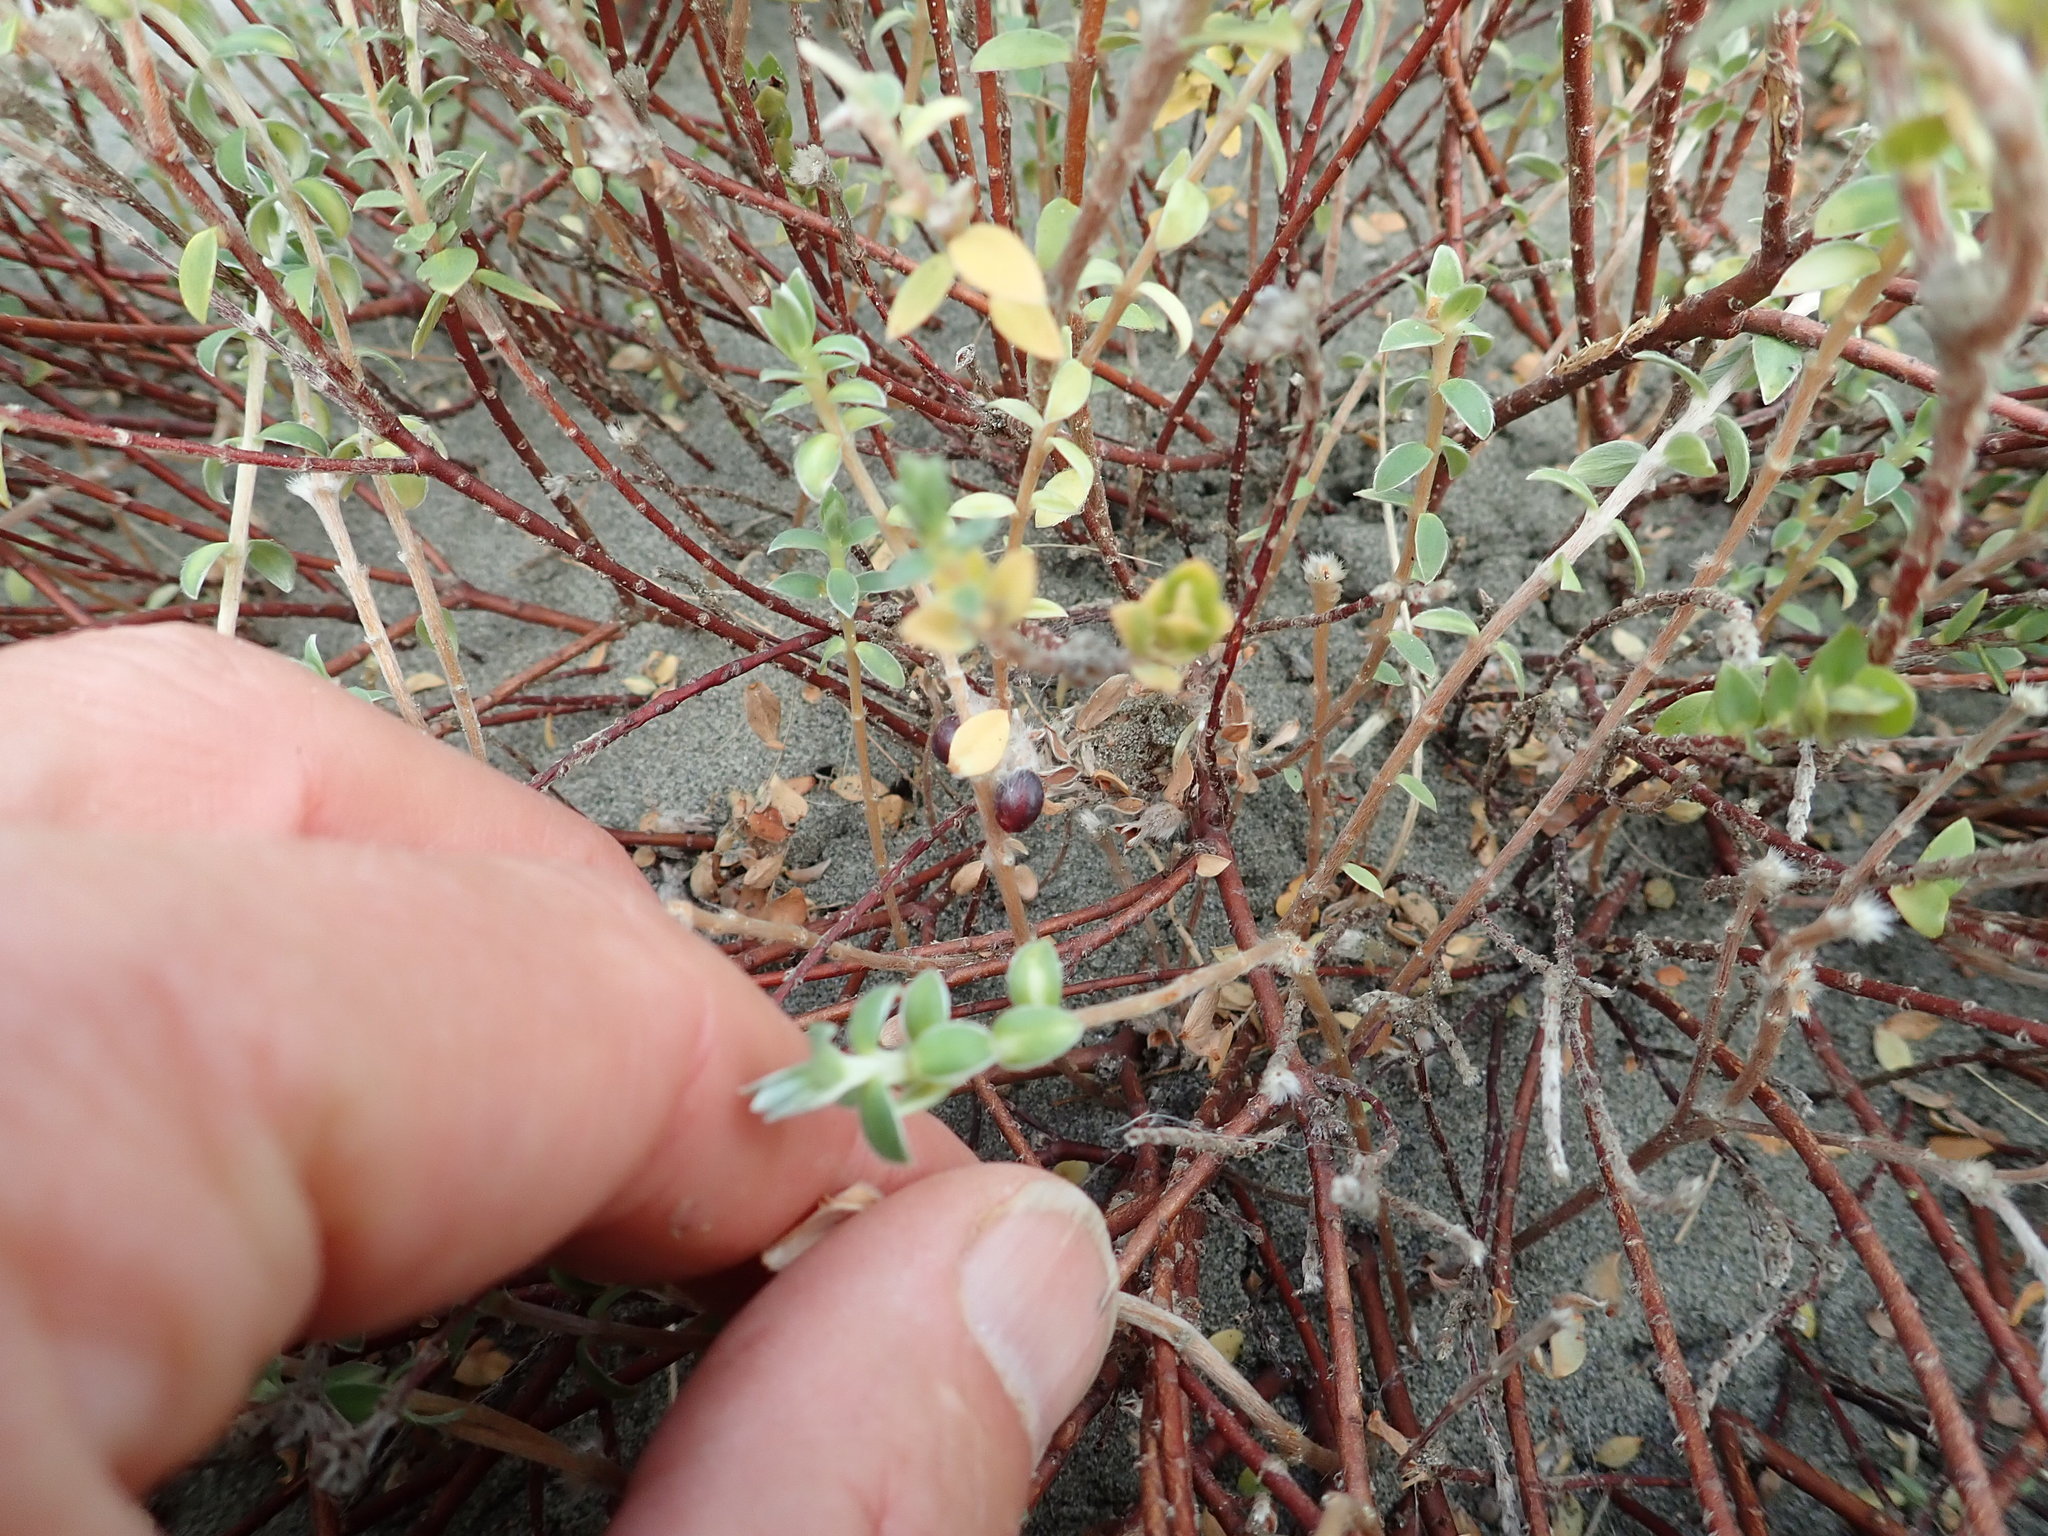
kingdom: Plantae
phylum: Tracheophyta
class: Magnoliopsida
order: Malvales
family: Thymelaeaceae
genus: Pimelea
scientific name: Pimelea villosa
